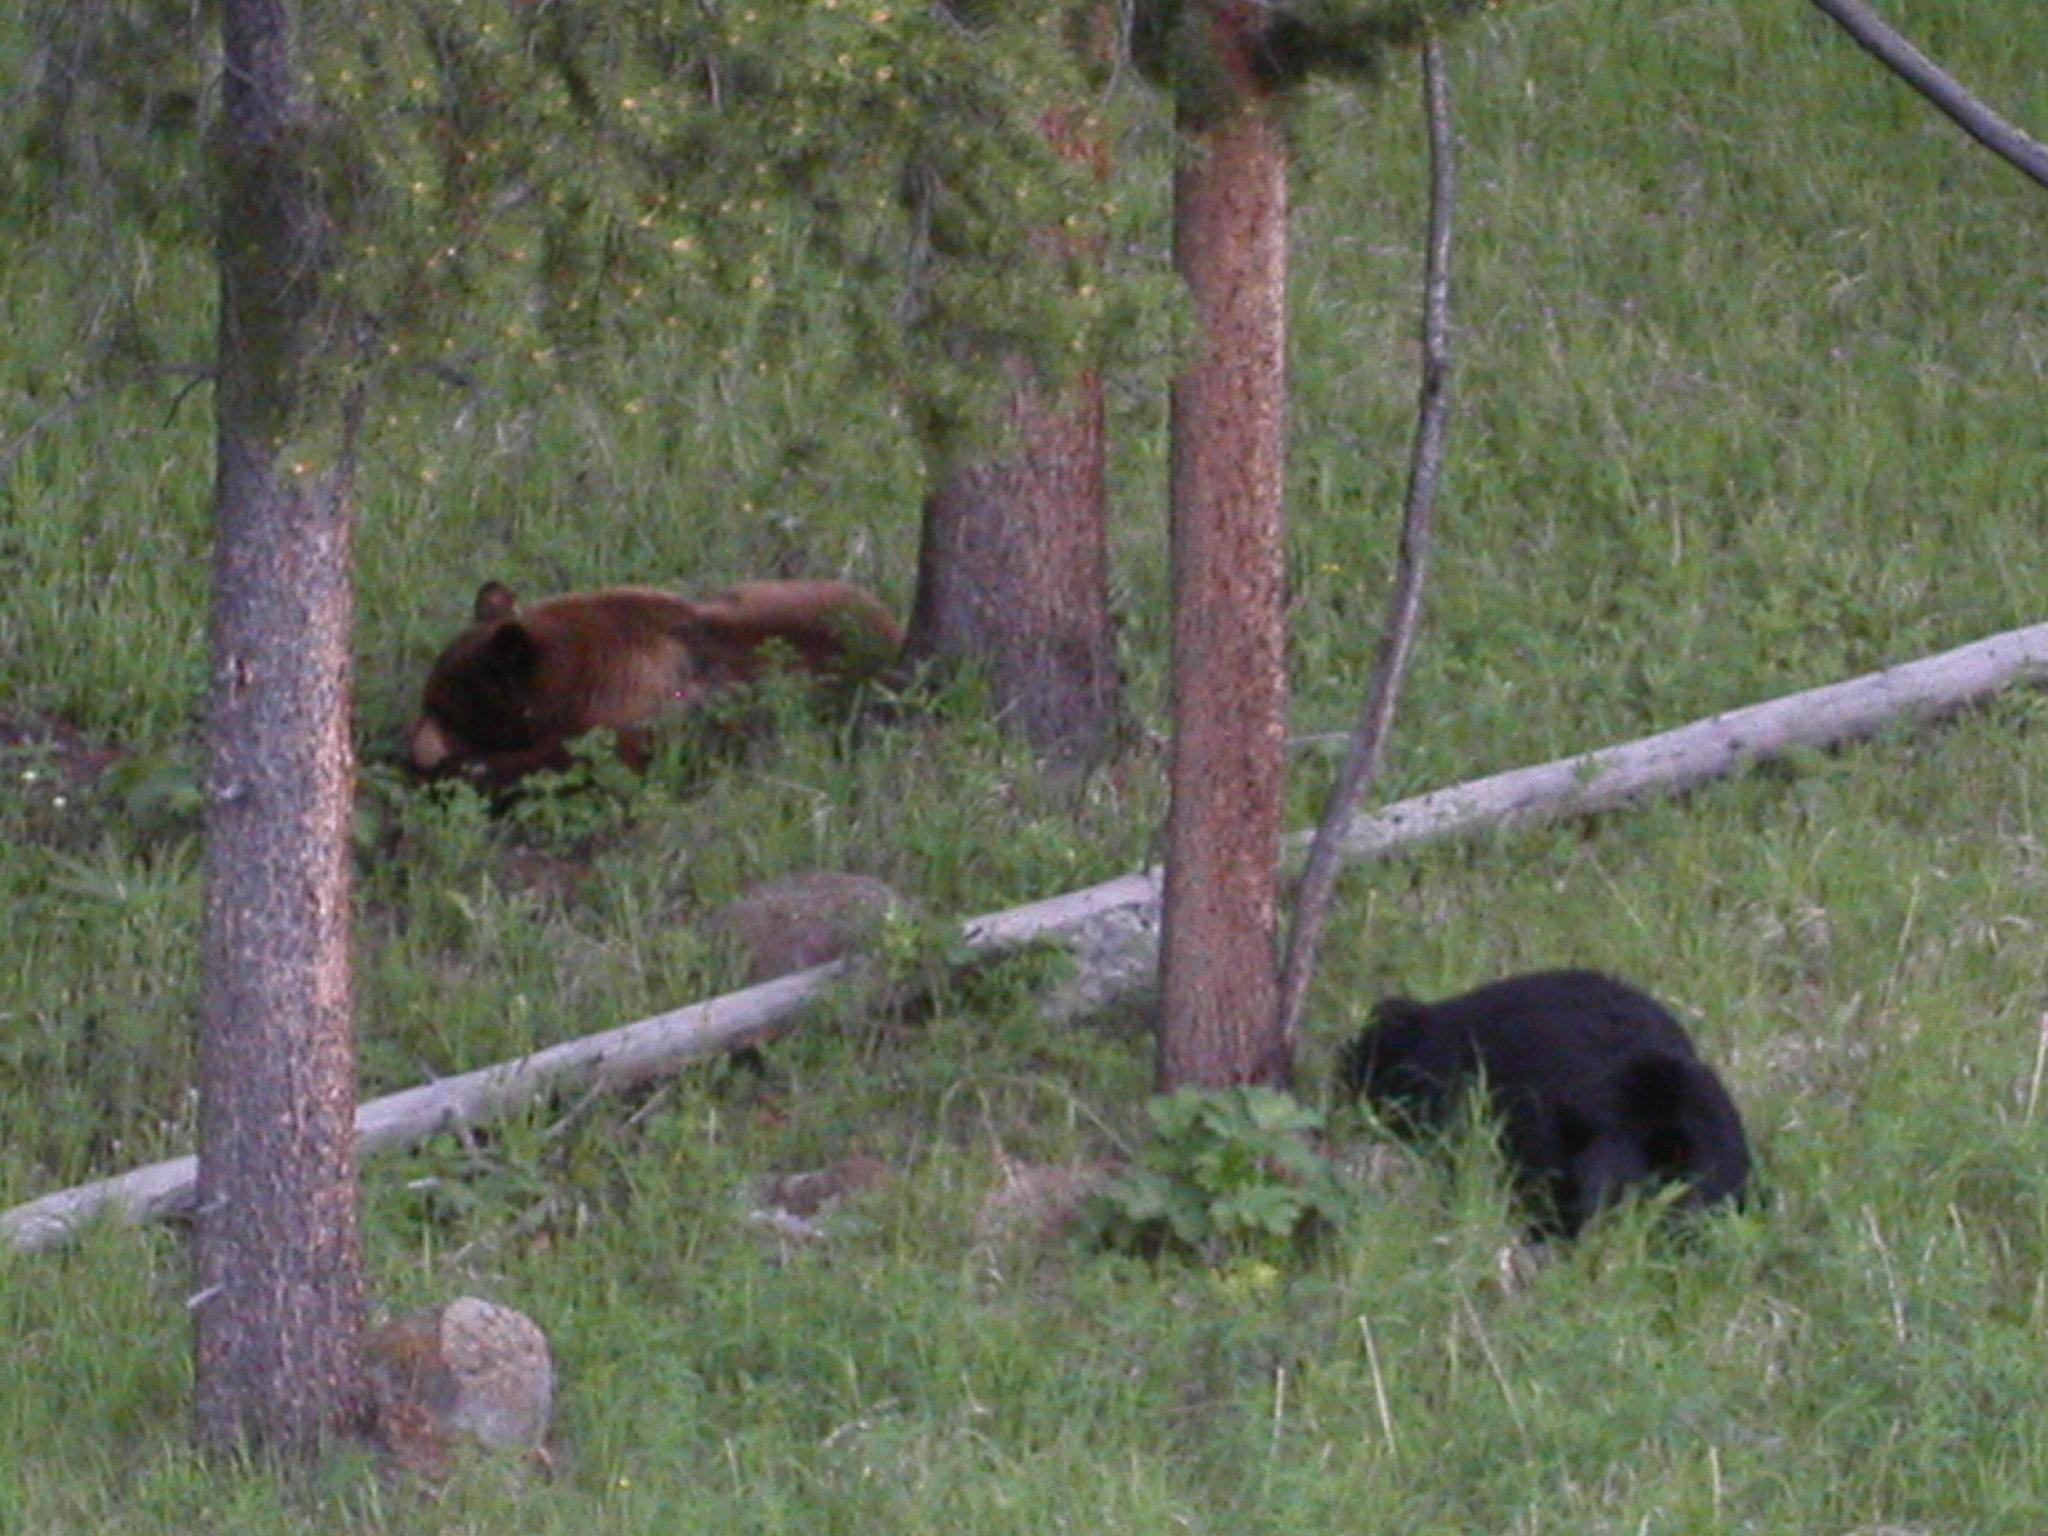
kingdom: Animalia
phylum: Chordata
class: Mammalia
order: Carnivora
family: Ursidae
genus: Ursus
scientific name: Ursus americanus
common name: American black bear
